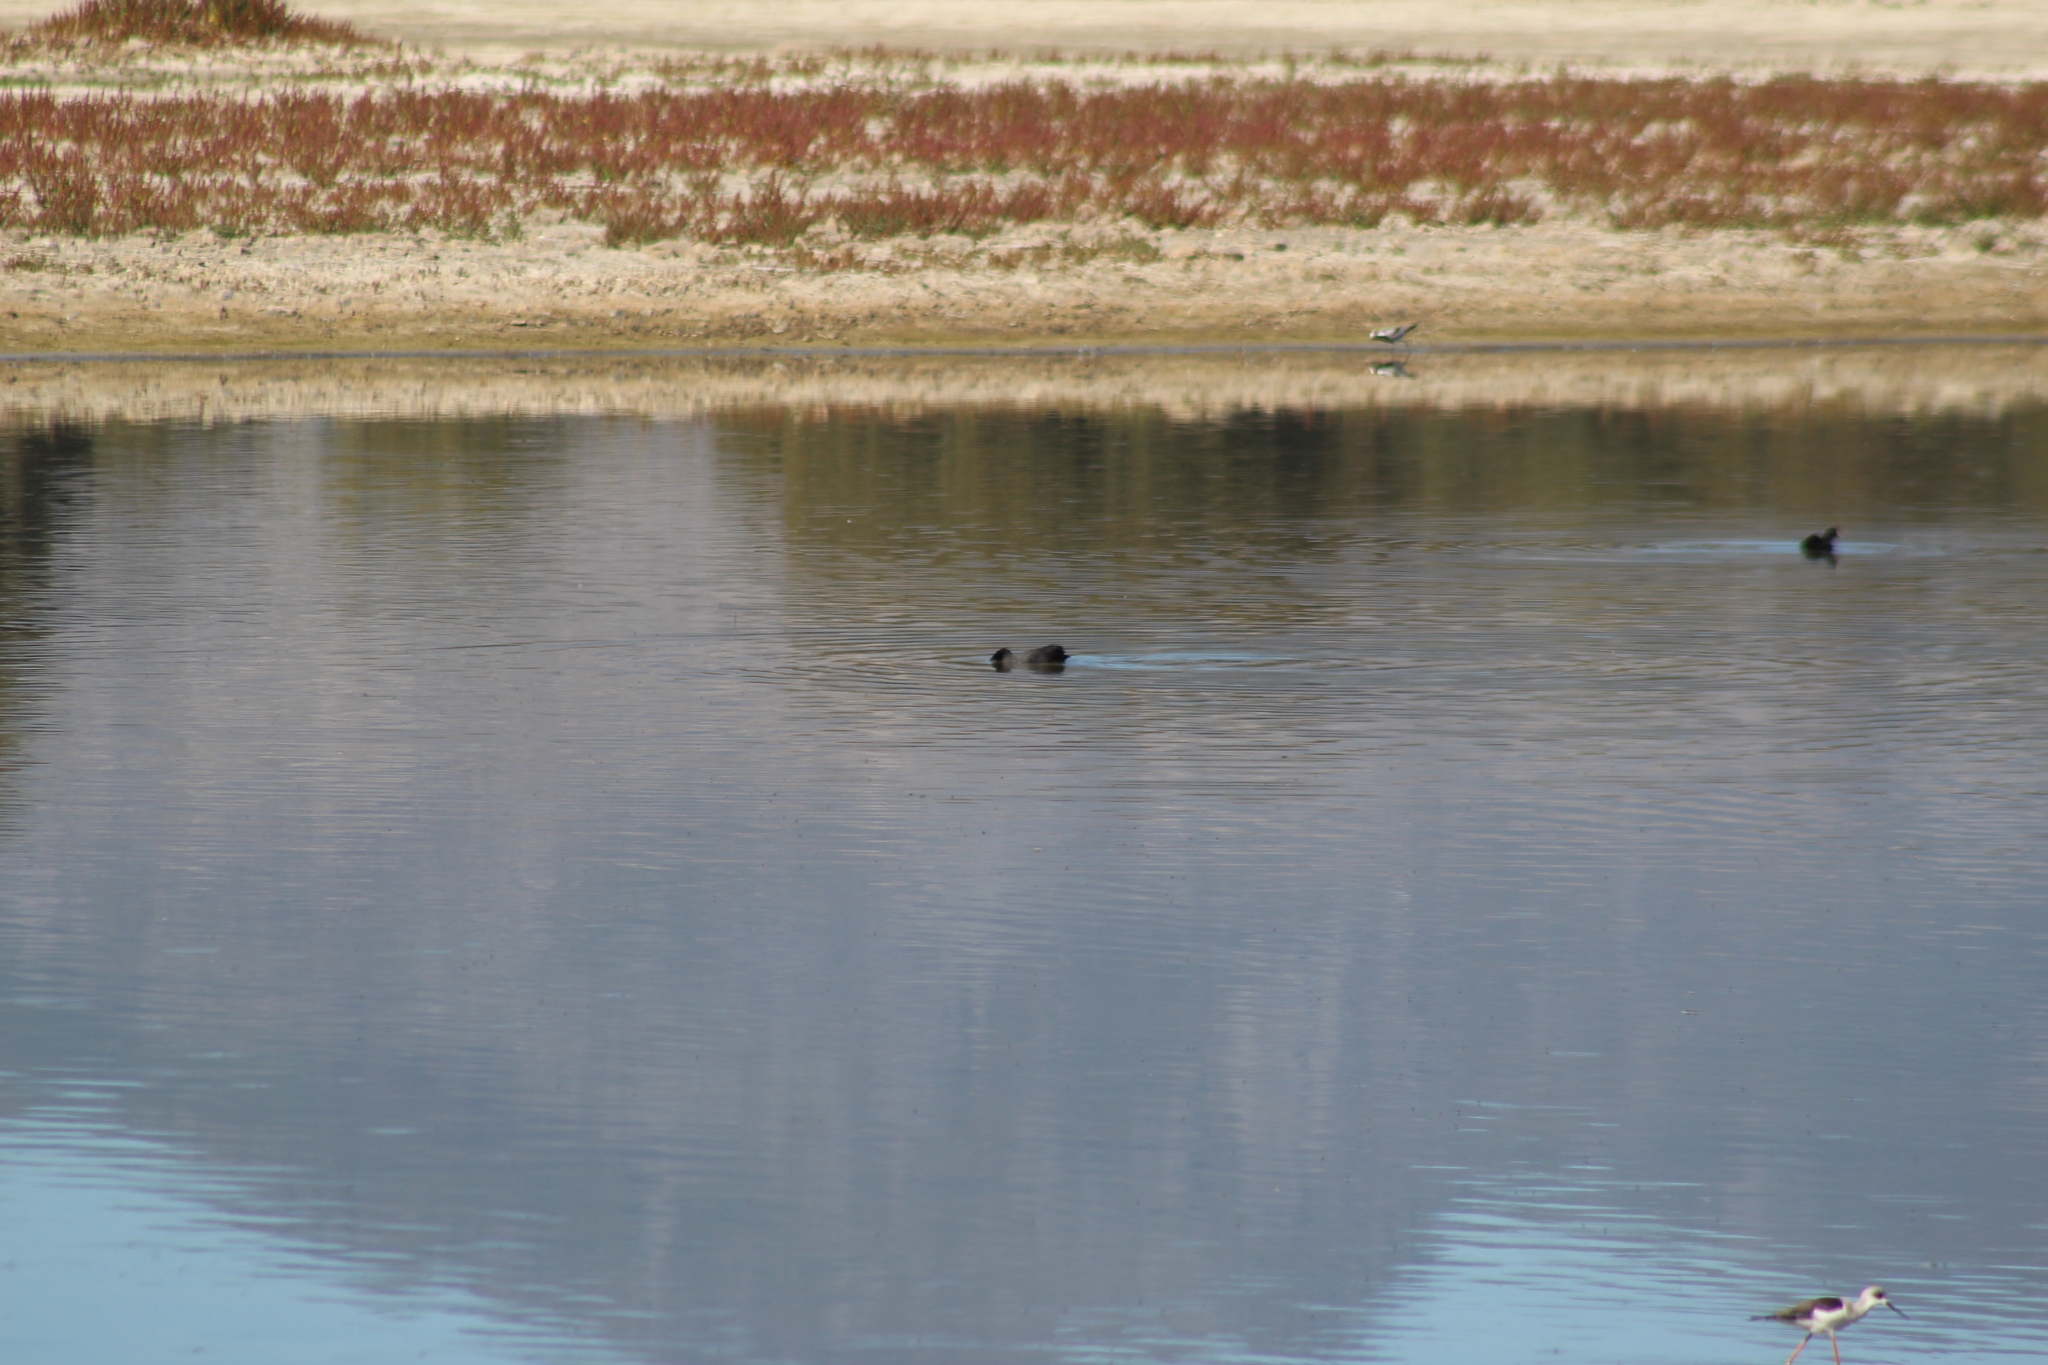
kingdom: Animalia
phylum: Chordata
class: Aves
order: Gruiformes
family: Rallidae
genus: Fulica
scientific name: Fulica cristata
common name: Red-knobbed coot
